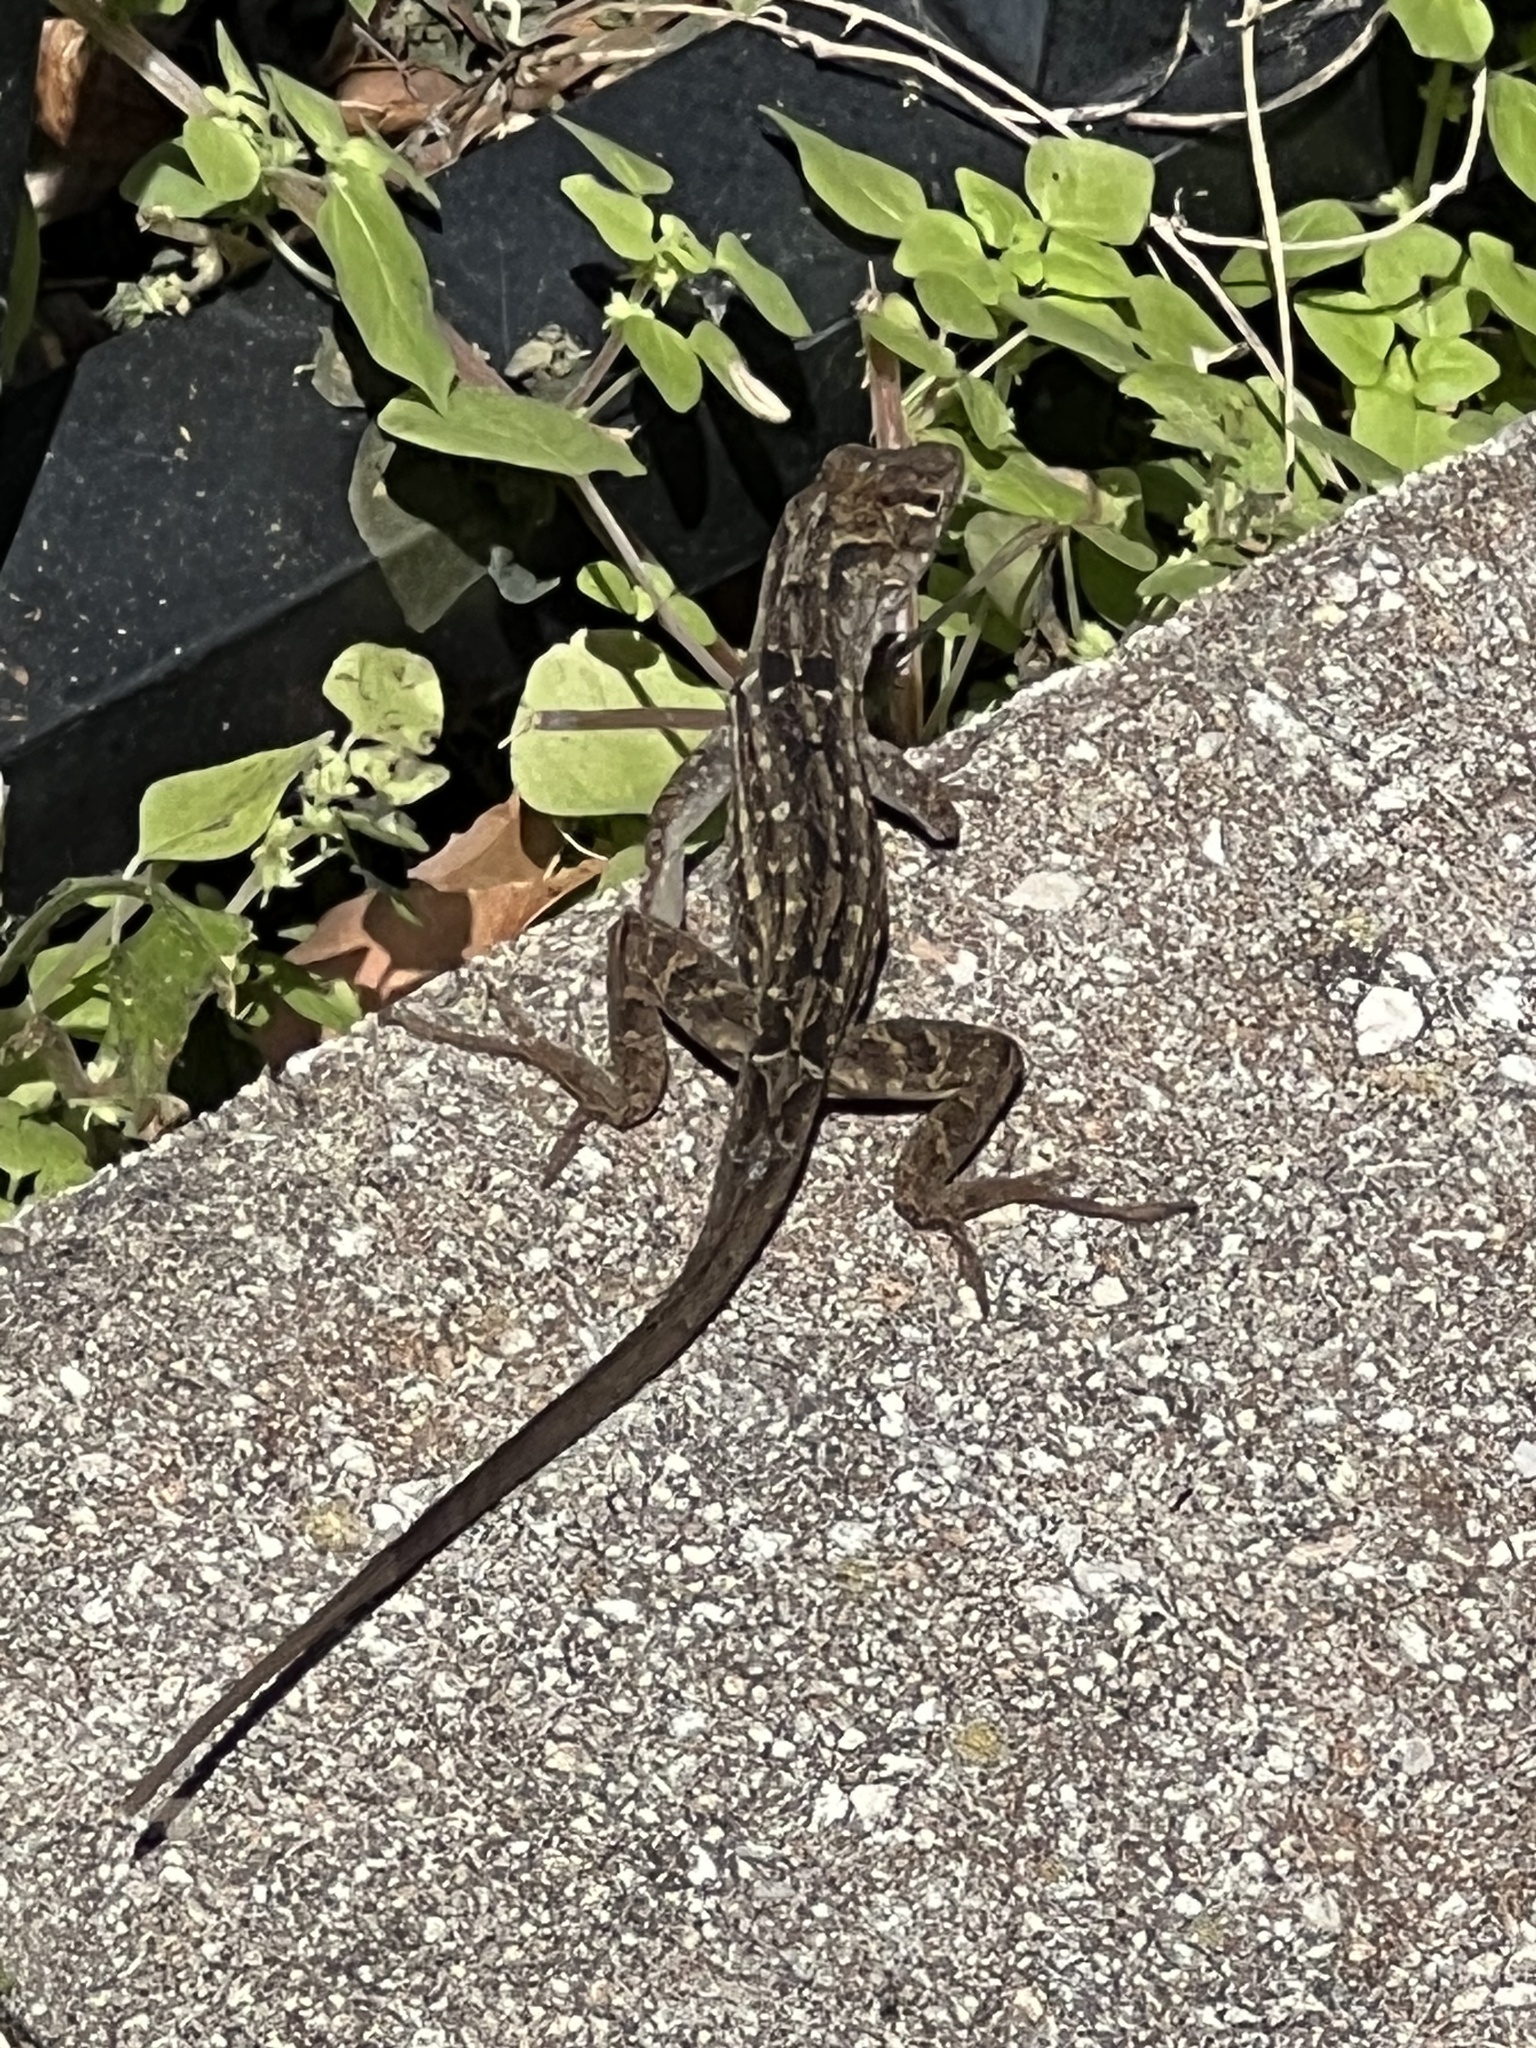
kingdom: Animalia
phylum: Chordata
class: Squamata
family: Dactyloidae
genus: Anolis
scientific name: Anolis sagrei
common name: Brown anole
